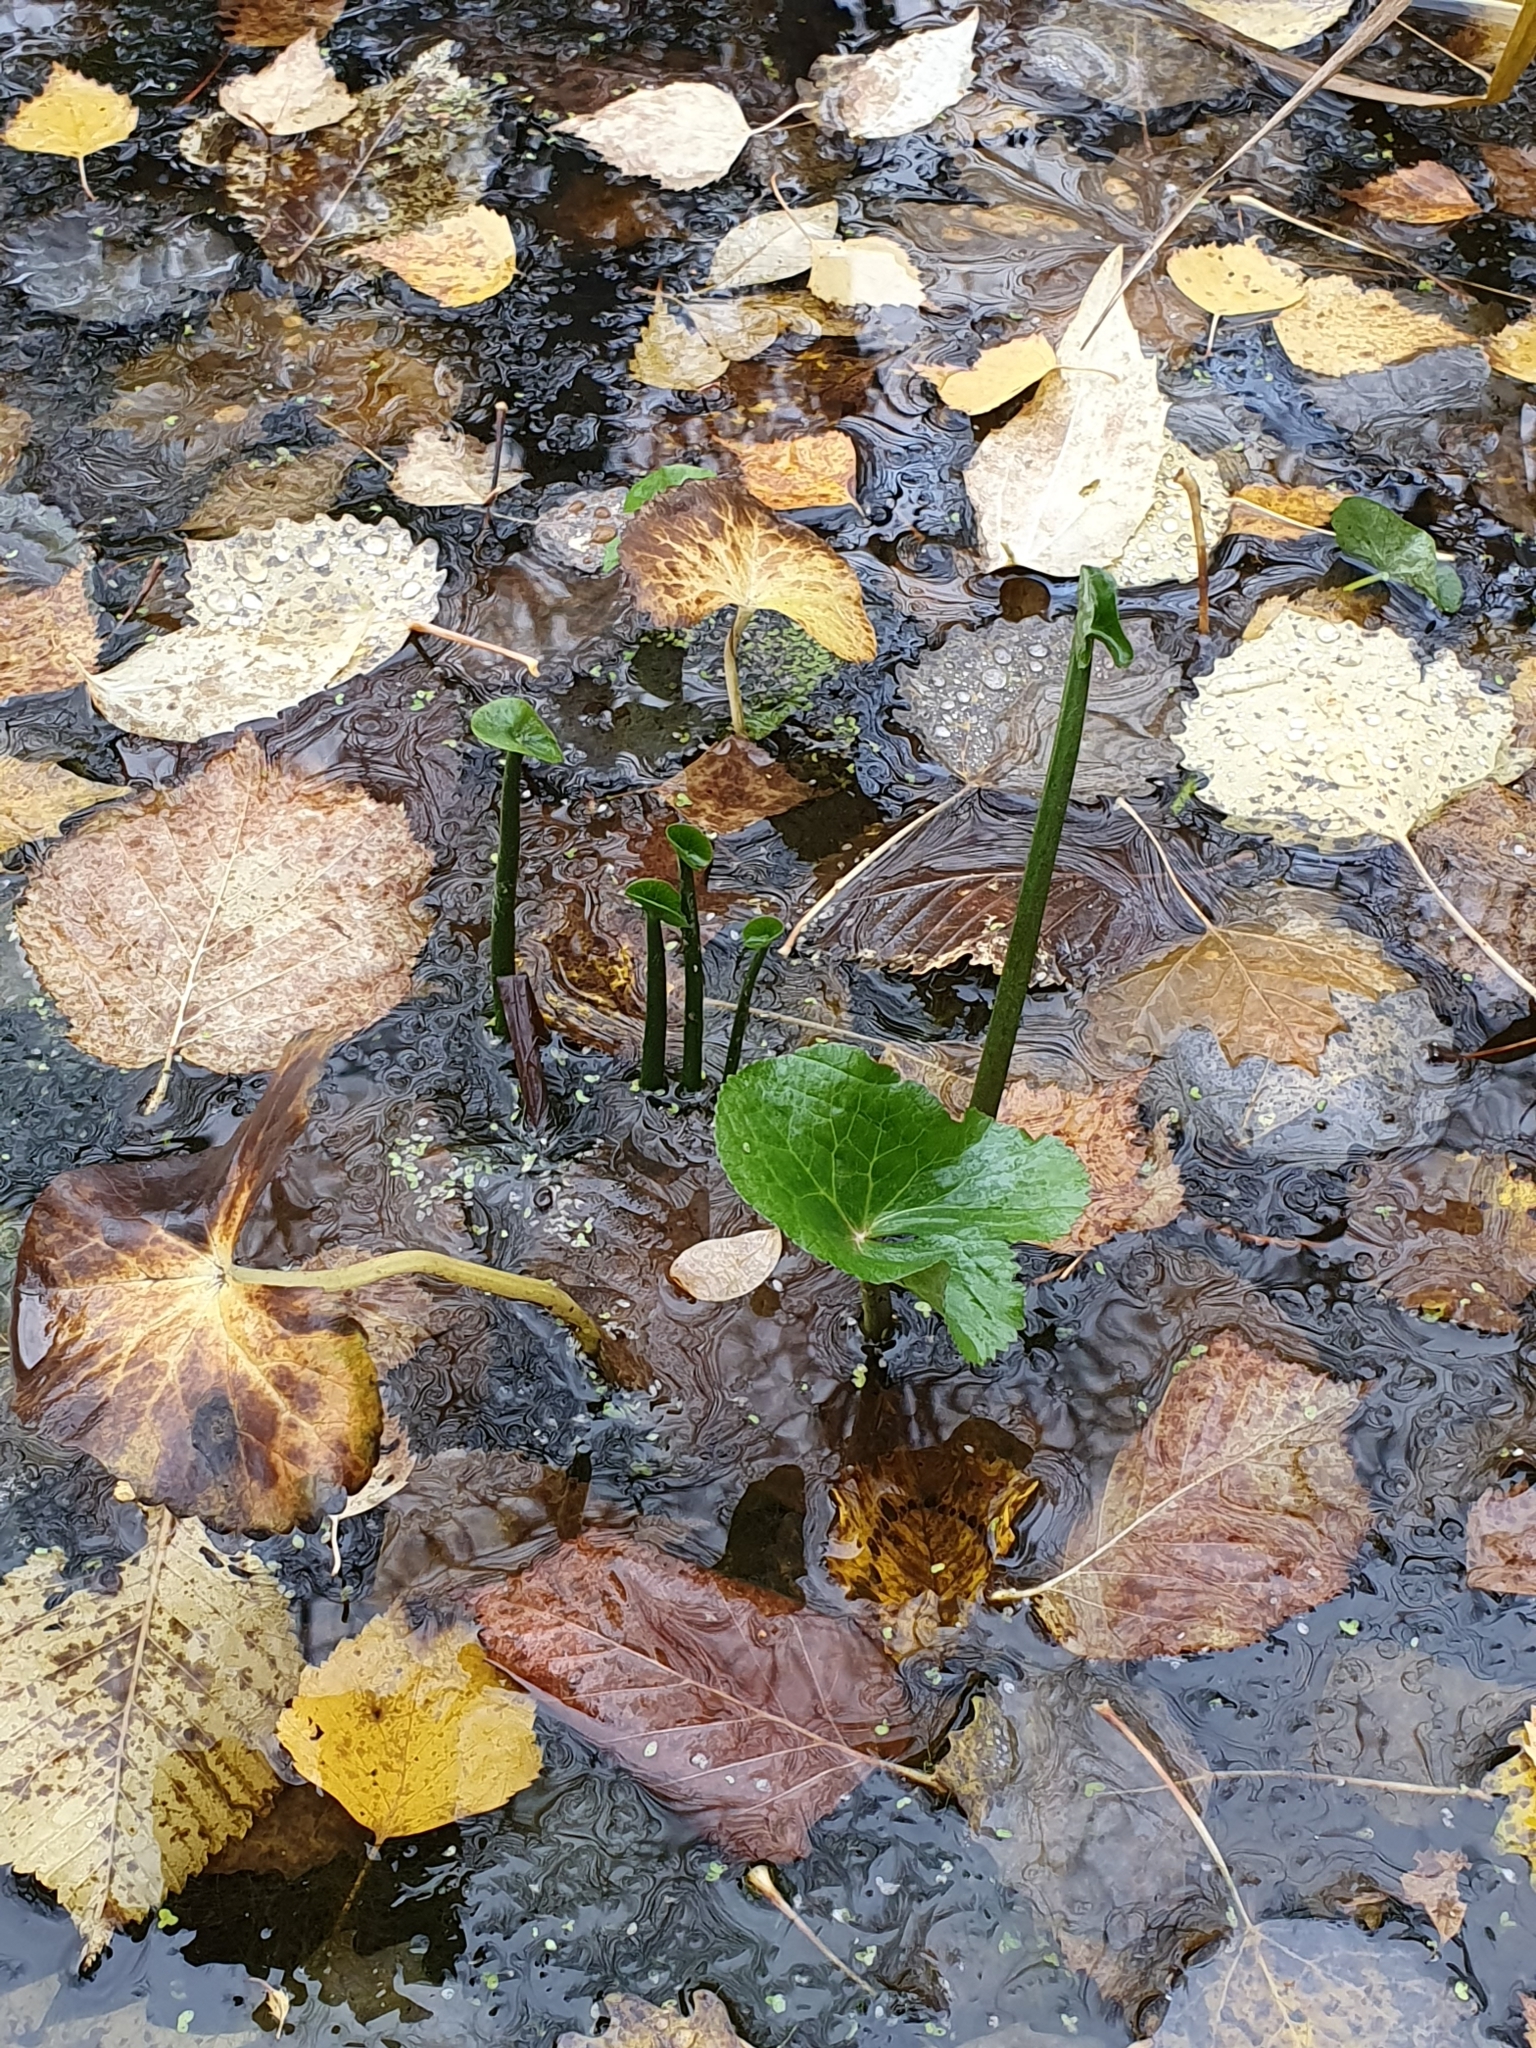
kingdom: Plantae
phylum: Tracheophyta
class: Magnoliopsida
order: Ranunculales
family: Ranunculaceae
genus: Caltha
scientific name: Caltha palustris
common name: Marsh marigold
